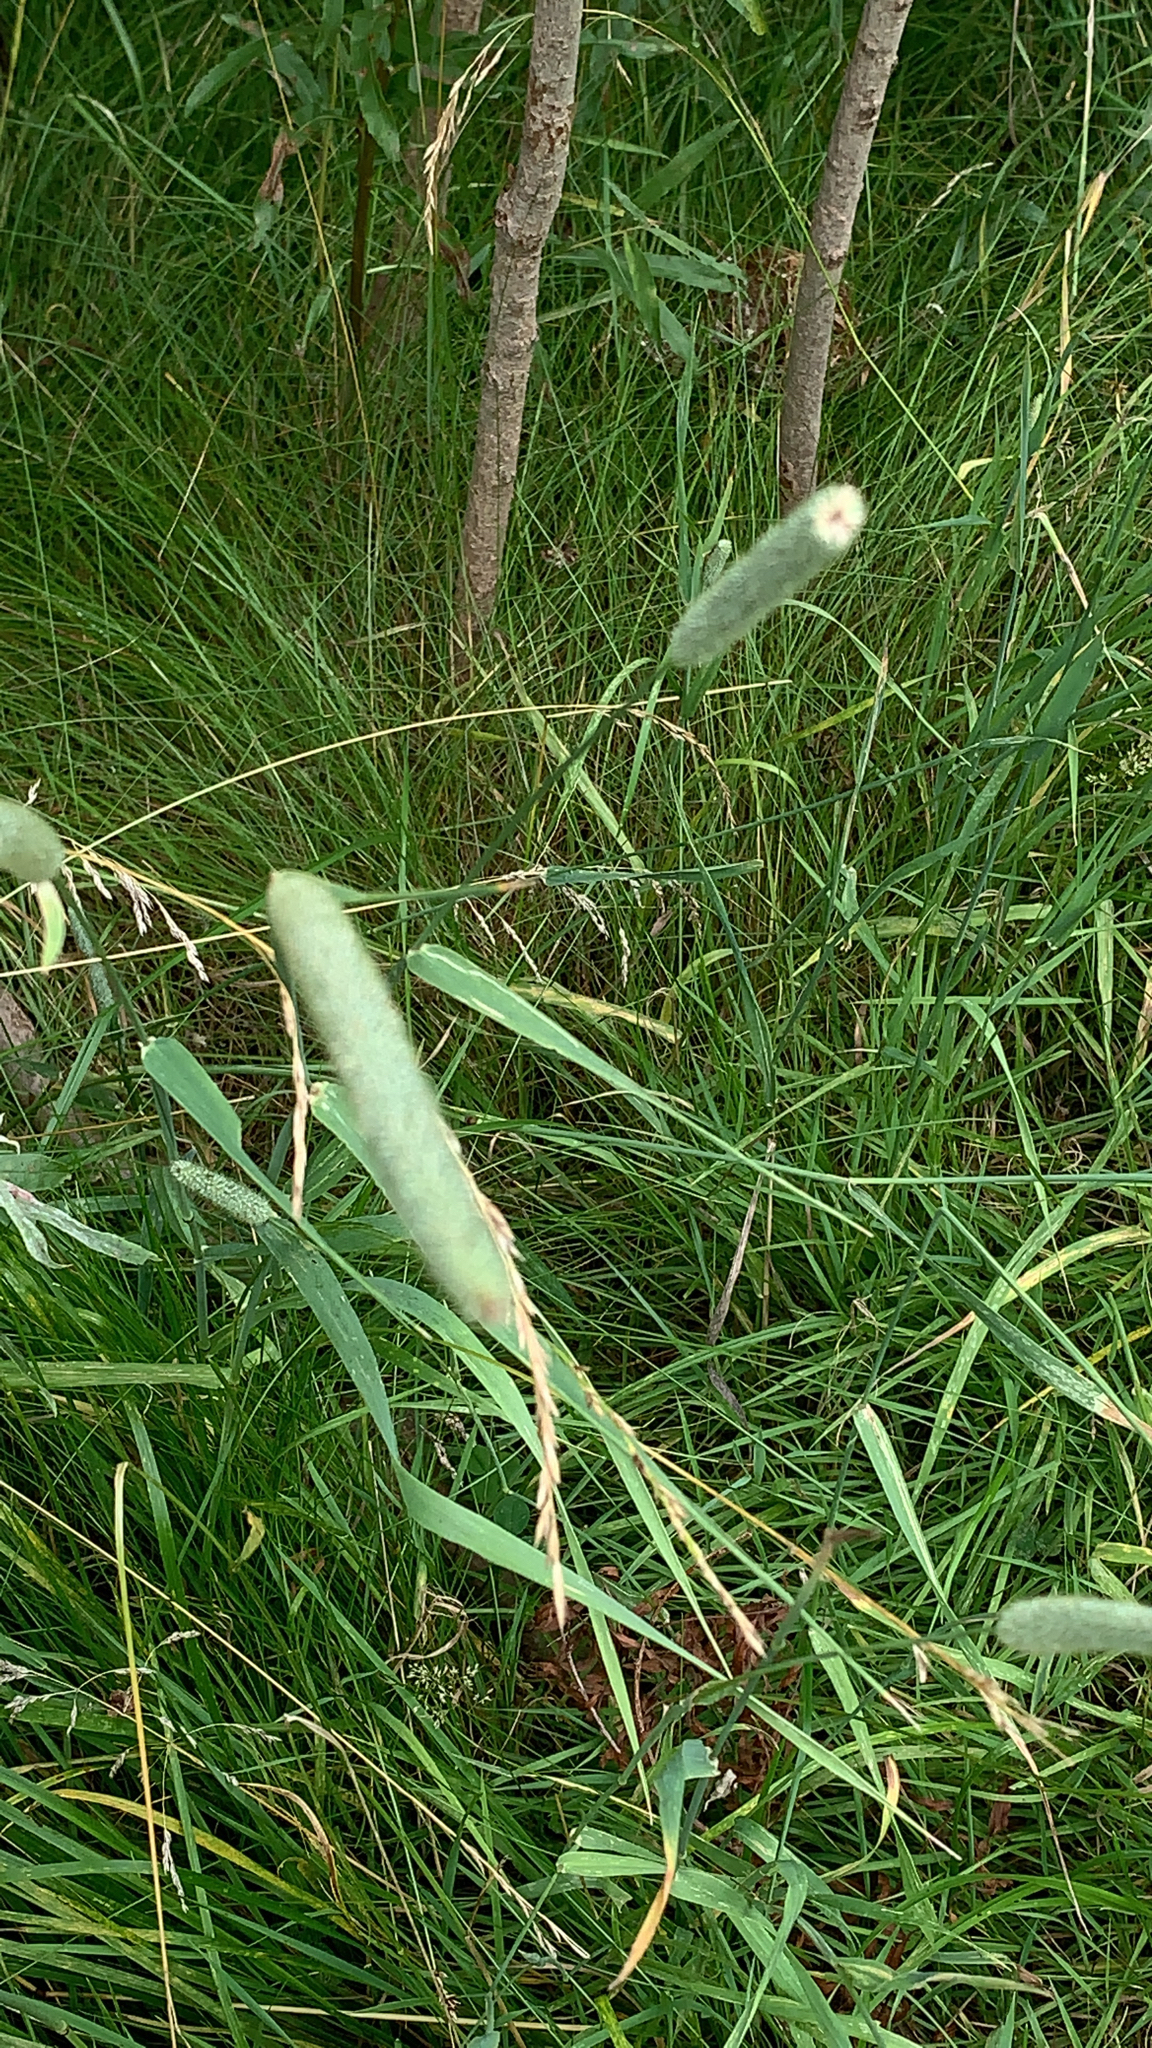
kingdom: Plantae
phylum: Tracheophyta
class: Liliopsida
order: Poales
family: Poaceae
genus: Phleum
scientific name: Phleum pratense
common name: Timothy grass
